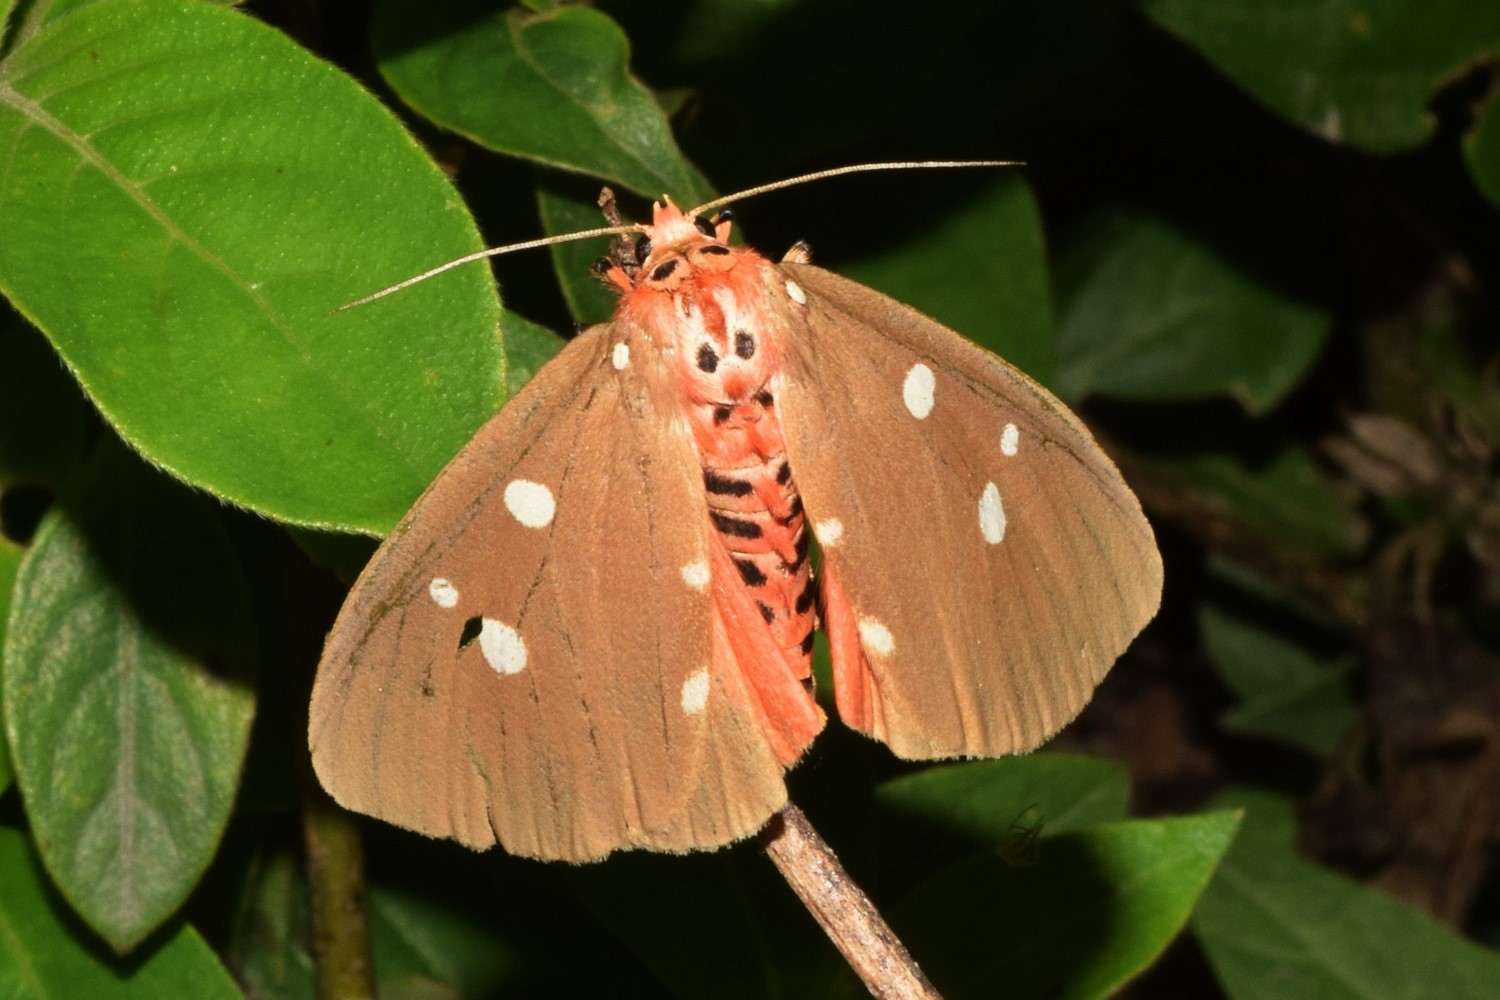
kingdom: Animalia
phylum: Arthropoda
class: Insecta
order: Lepidoptera
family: Erebidae
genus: Tinolius
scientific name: Tinolius eburneigutta
